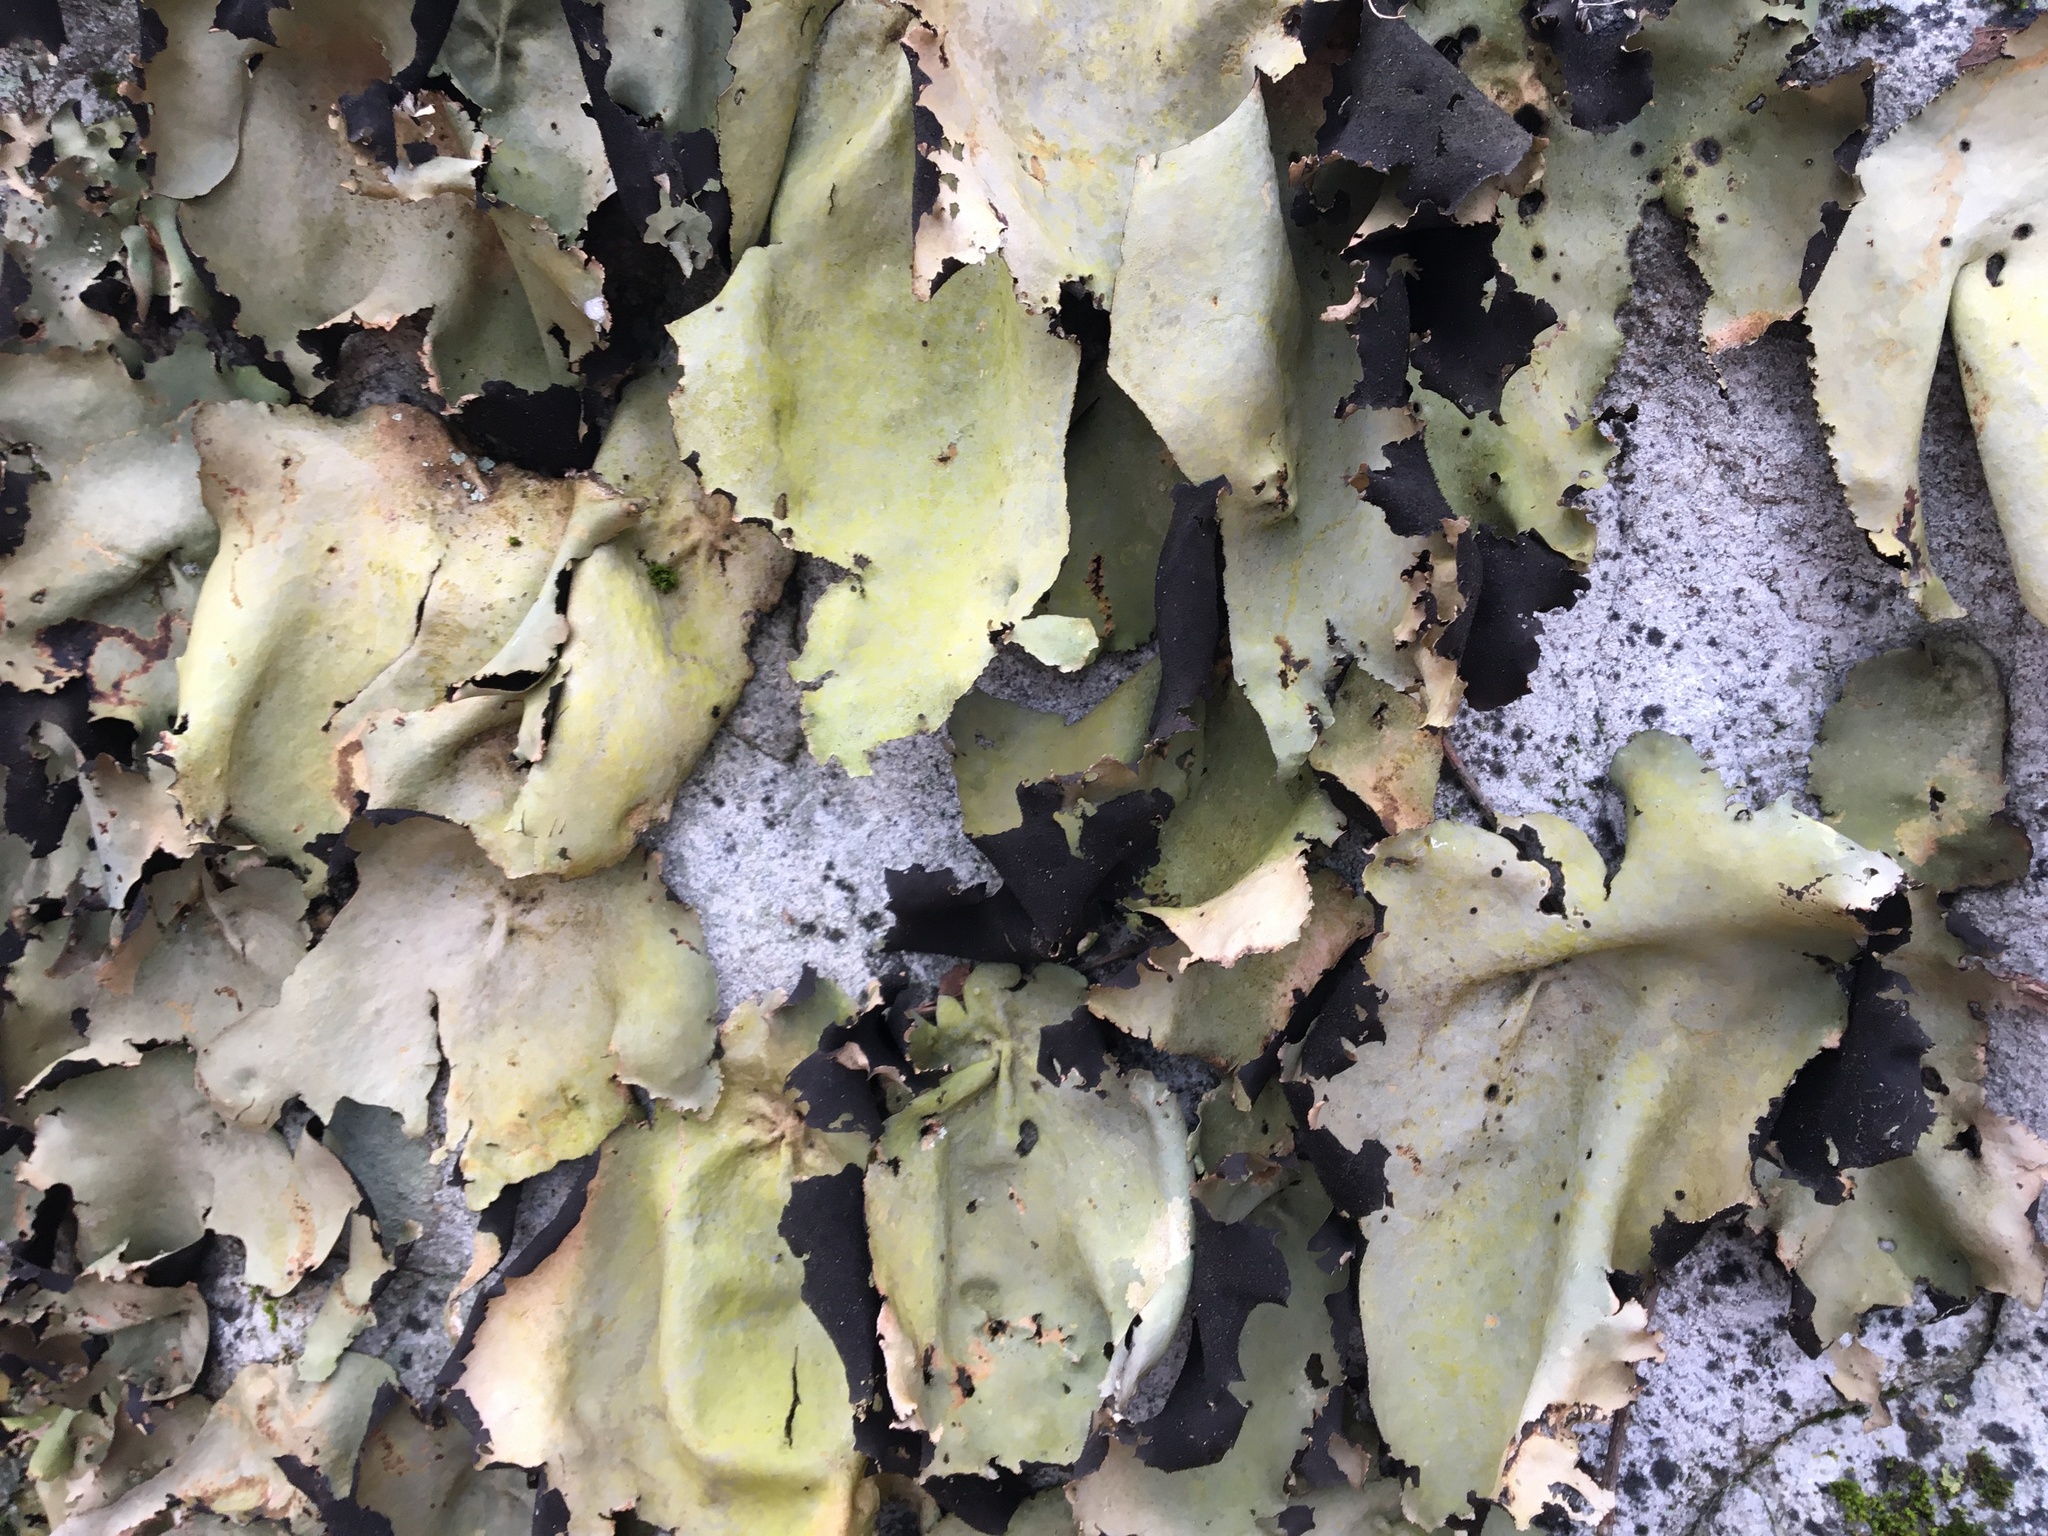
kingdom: Fungi
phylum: Ascomycota
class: Lecanoromycetes
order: Umbilicariales
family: Umbilicariaceae
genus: Umbilicaria
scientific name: Umbilicaria mammulata
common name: Smooth rock tripe
